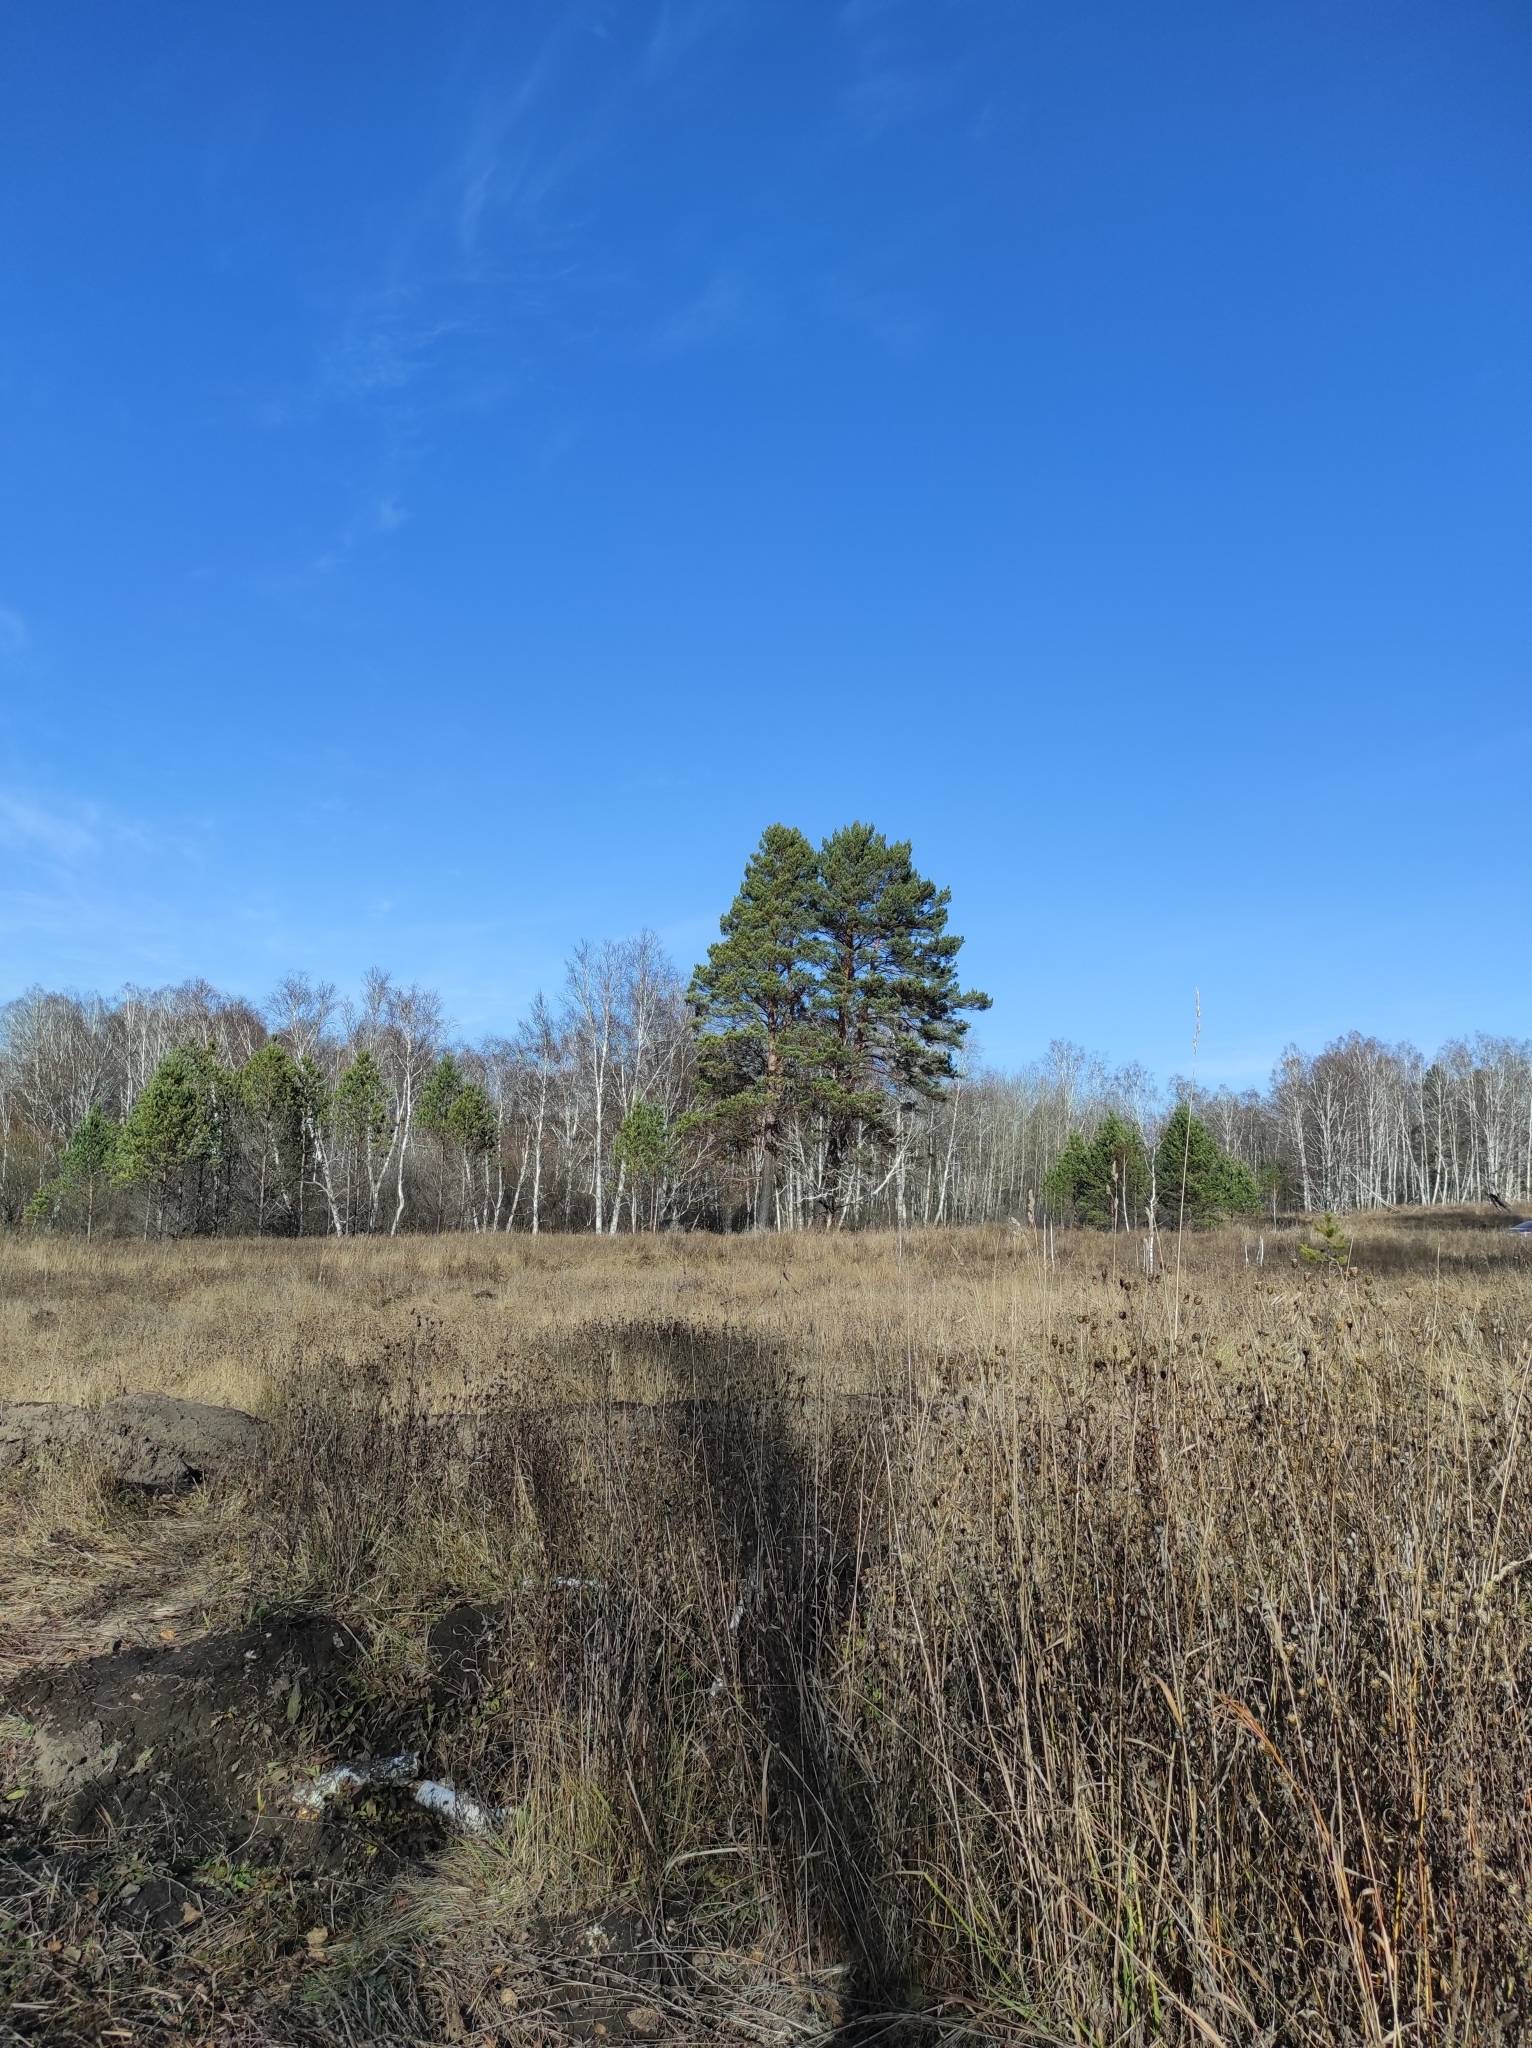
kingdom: Plantae
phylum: Tracheophyta
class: Pinopsida
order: Pinales
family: Pinaceae
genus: Pinus
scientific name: Pinus sylvestris
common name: Scots pine
